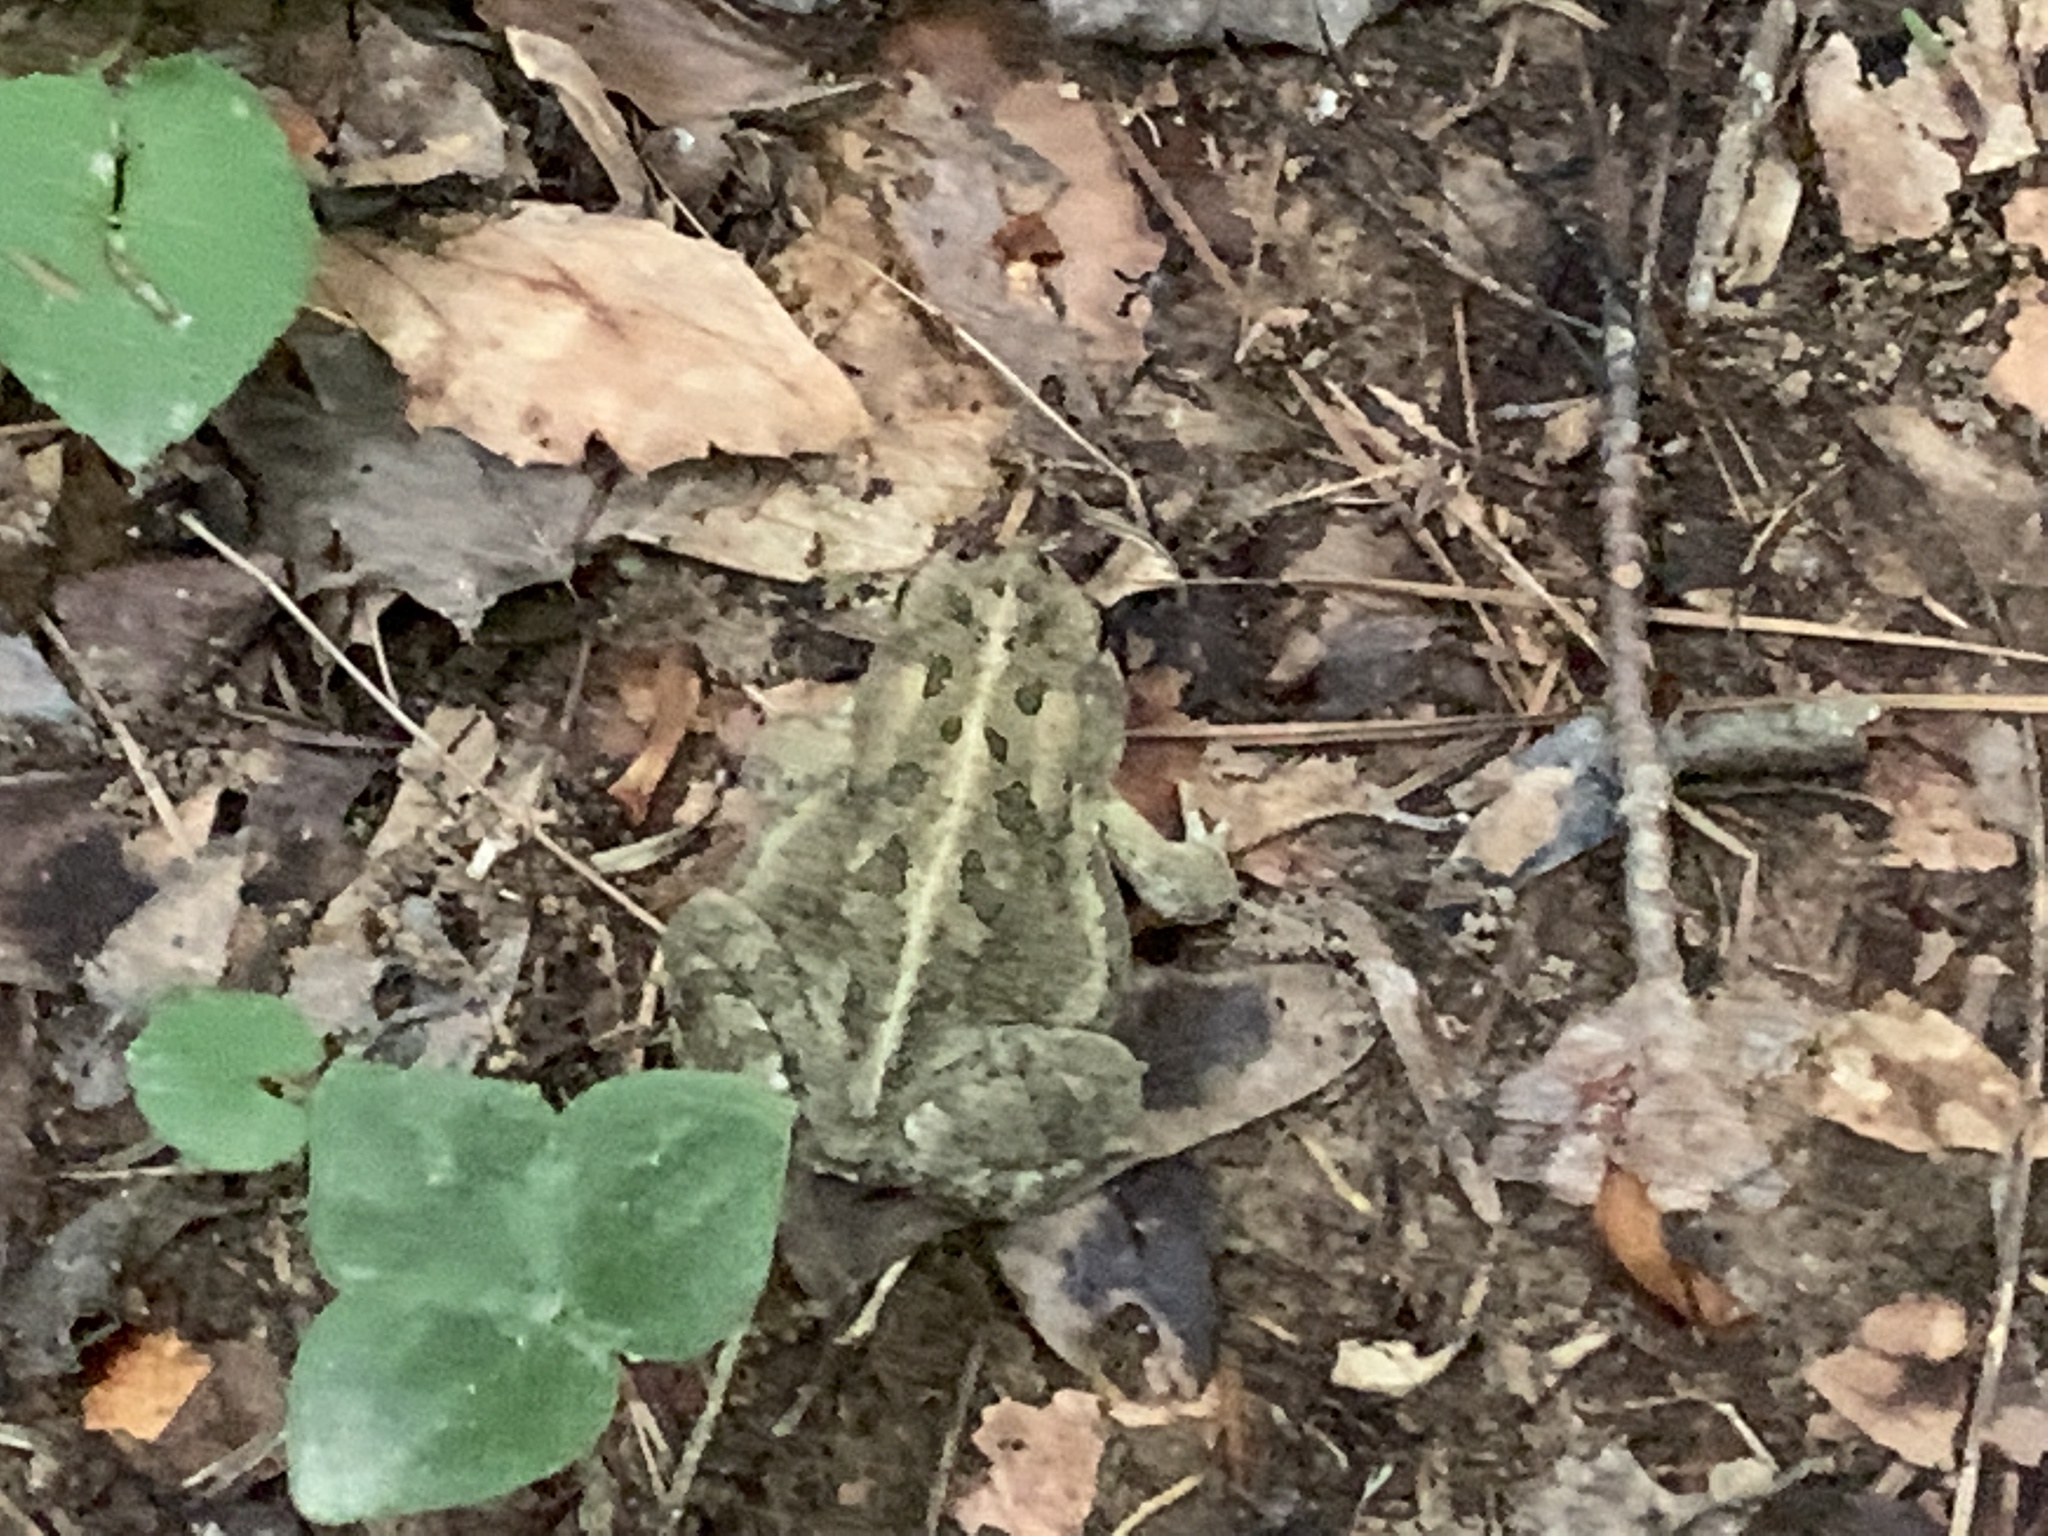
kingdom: Animalia
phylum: Chordata
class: Amphibia
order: Anura
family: Bufonidae
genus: Anaxyrus
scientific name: Anaxyrus fowleri
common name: Fowler's toad
